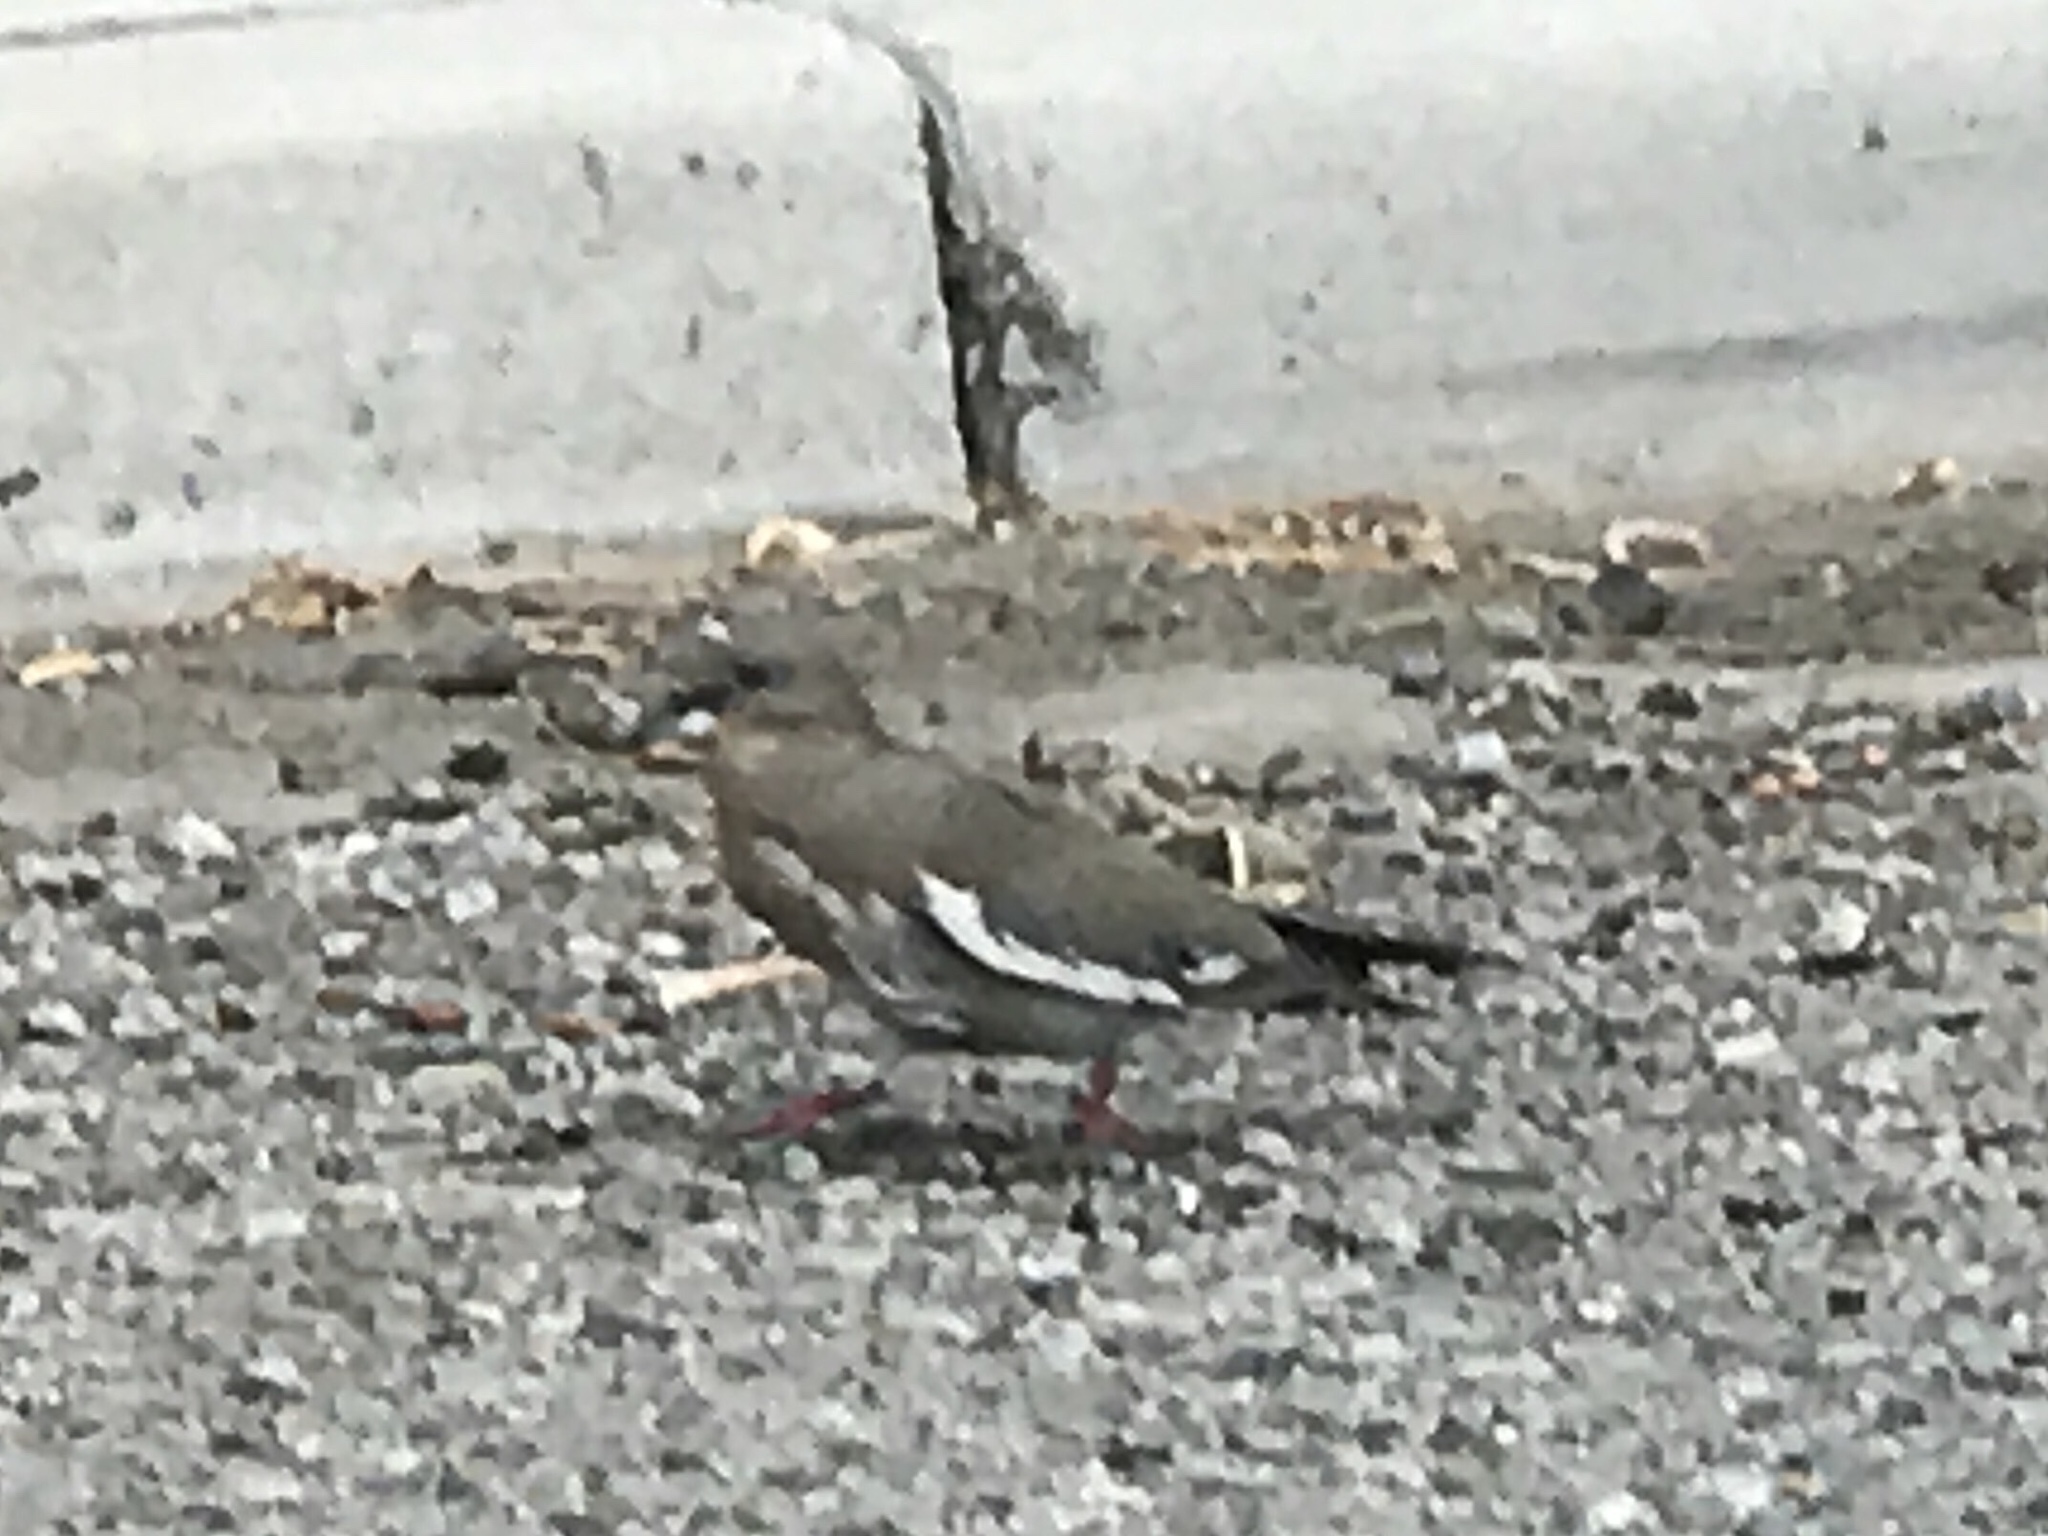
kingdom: Animalia
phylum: Chordata
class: Aves
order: Columbiformes
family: Columbidae
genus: Zenaida
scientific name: Zenaida asiatica
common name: White-winged dove
